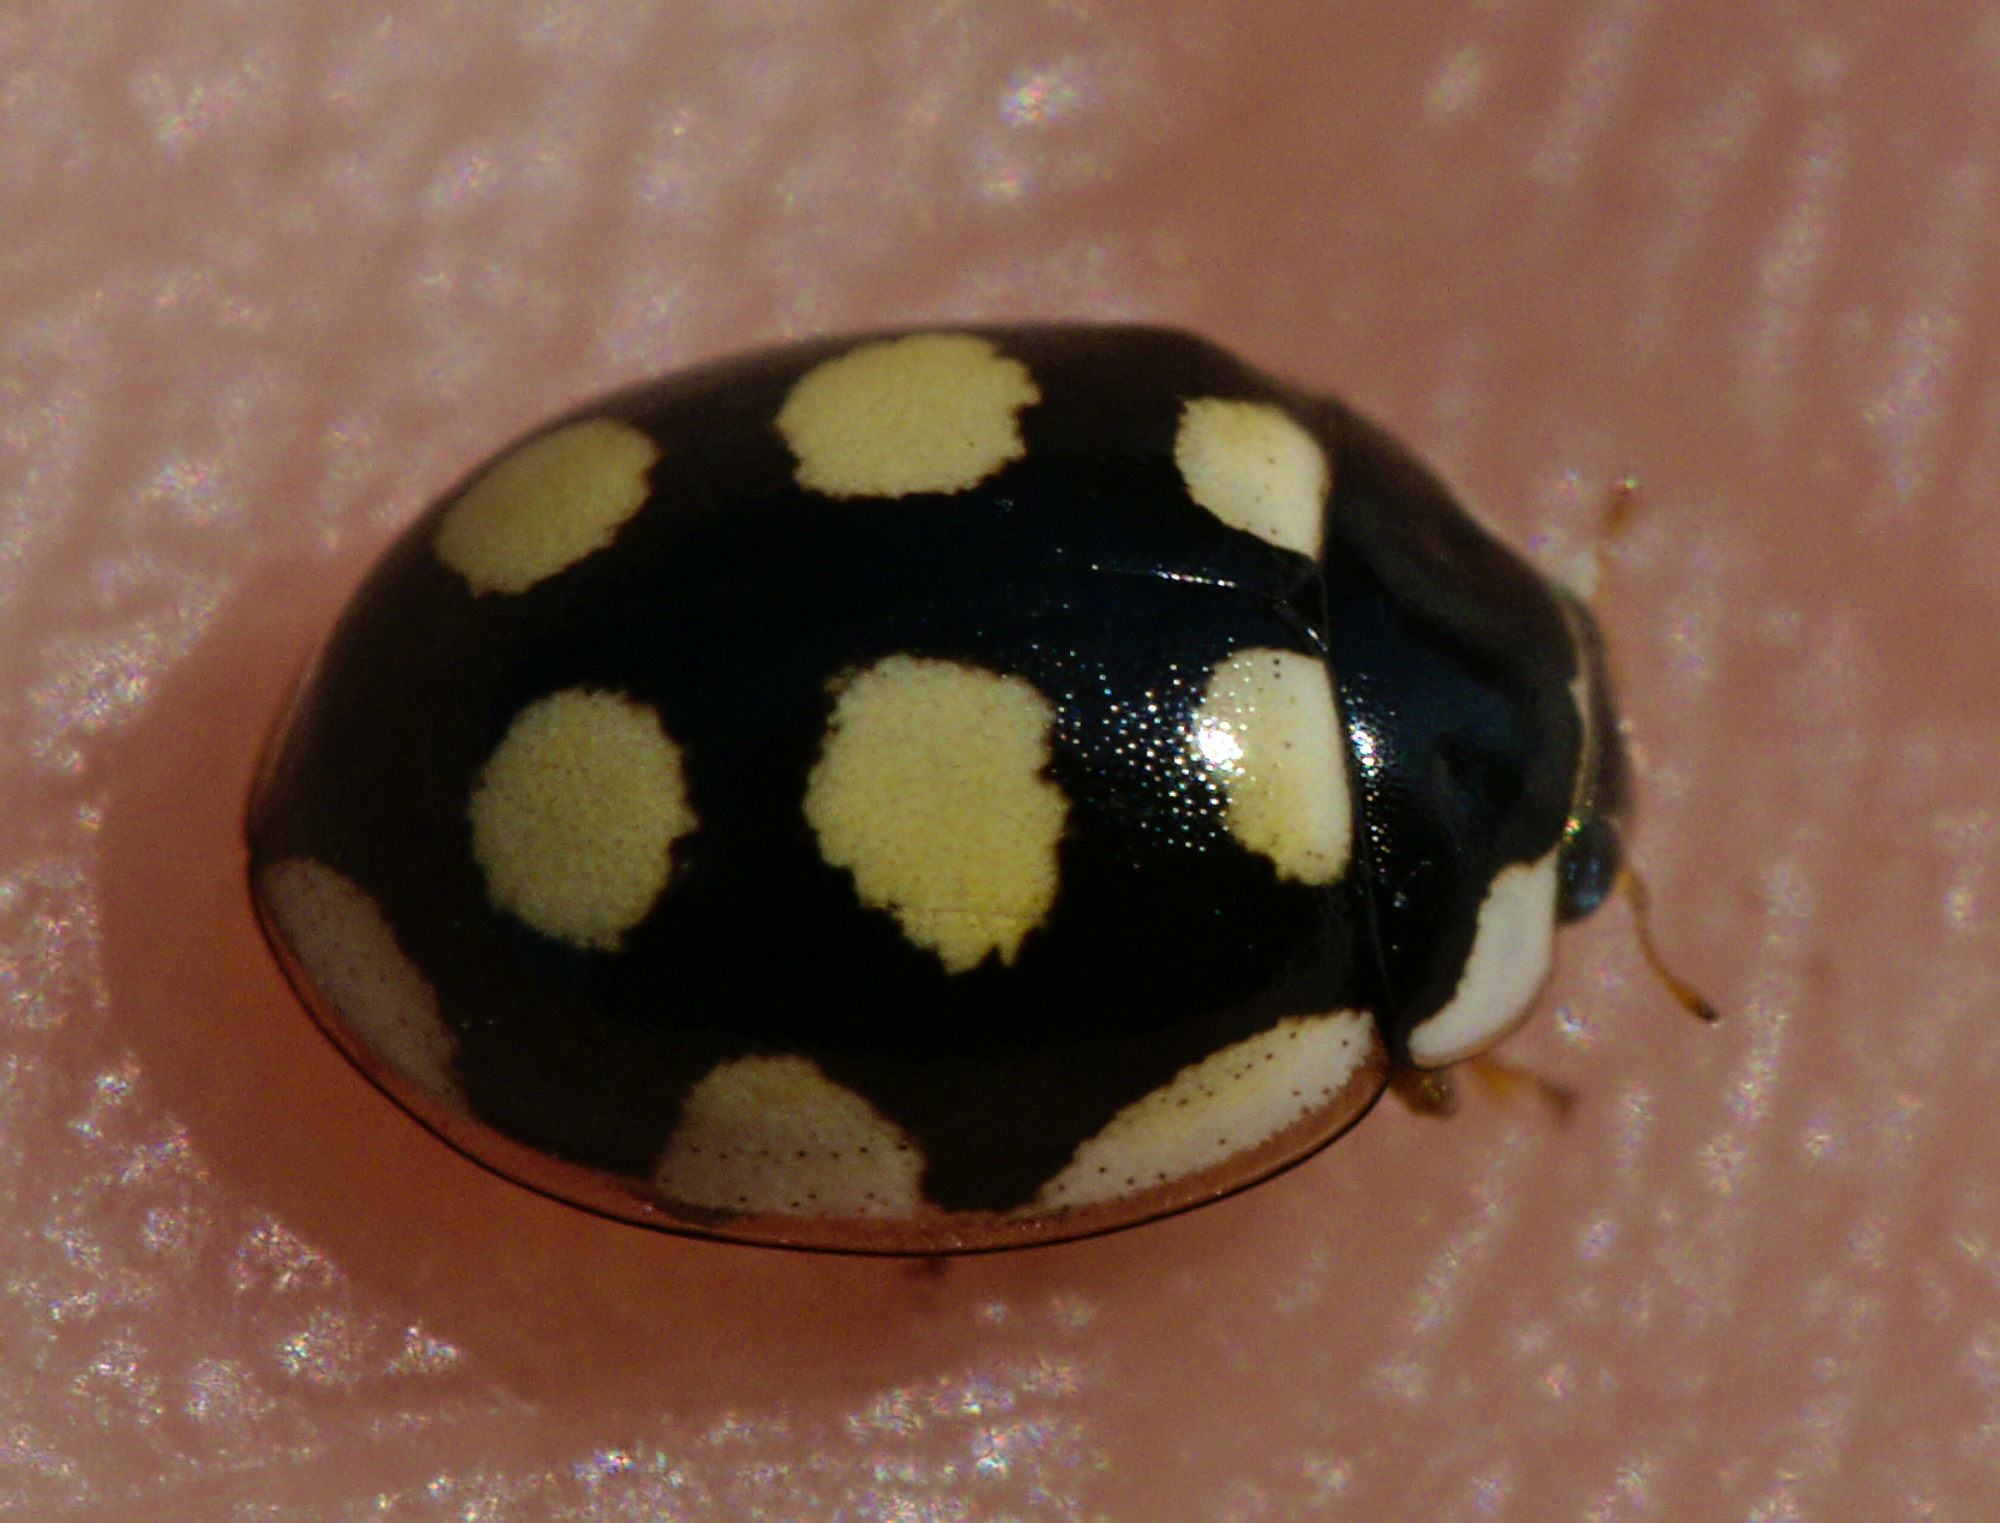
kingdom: Animalia
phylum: Arthropoda
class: Insecta
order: Coleoptera
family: Coccinellidae
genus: Oenopia
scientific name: Oenopia lyncea
